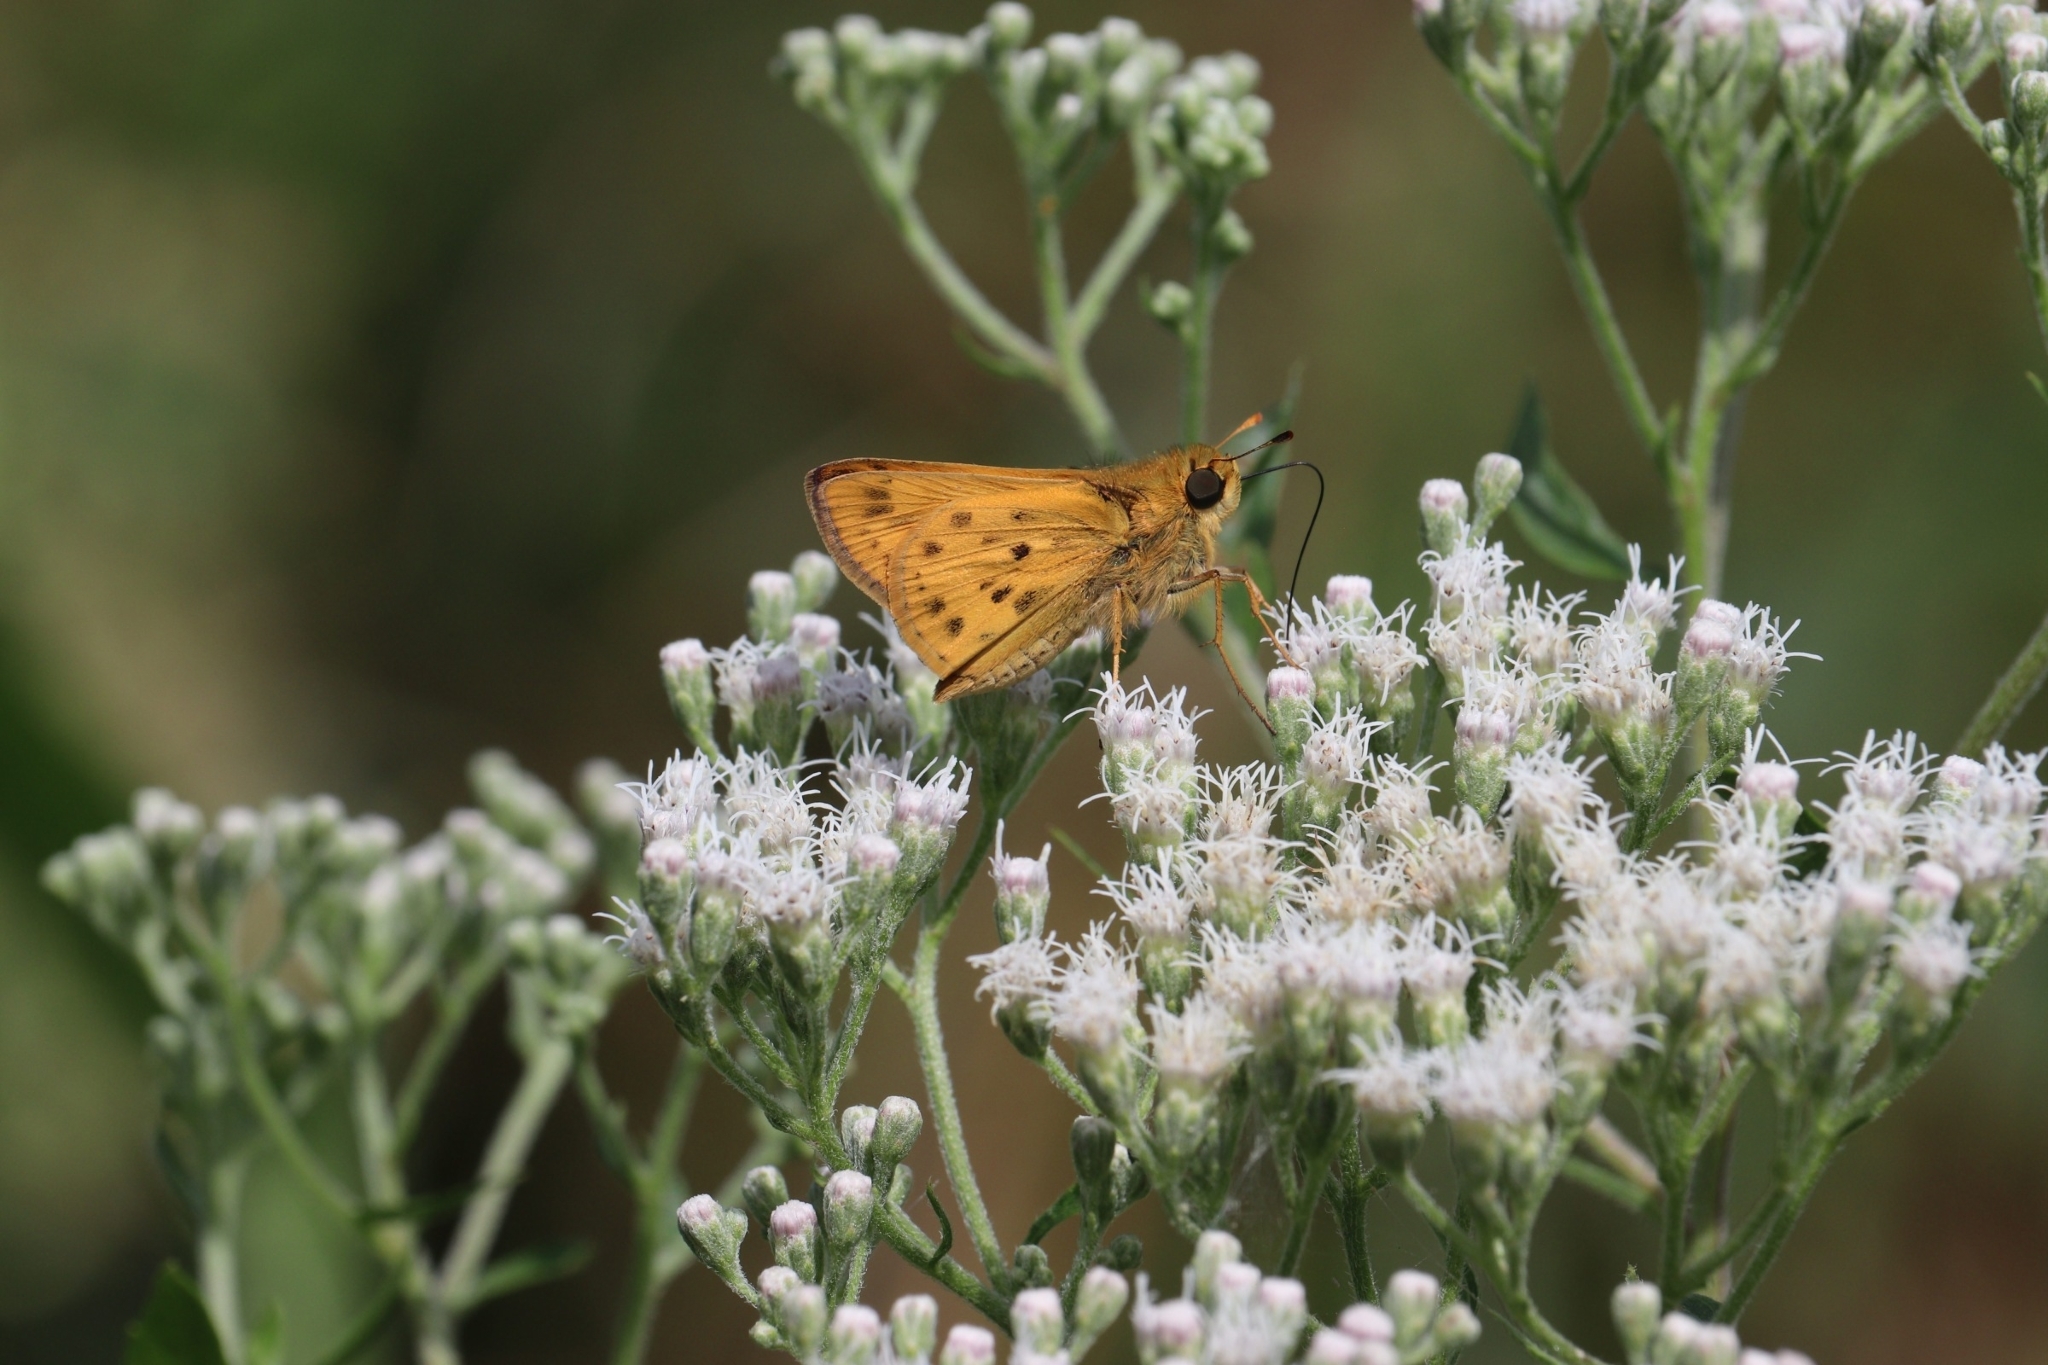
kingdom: Animalia
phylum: Arthropoda
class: Insecta
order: Lepidoptera
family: Hesperiidae
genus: Hylephila
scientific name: Hylephila phyleus
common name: Fiery skipper
